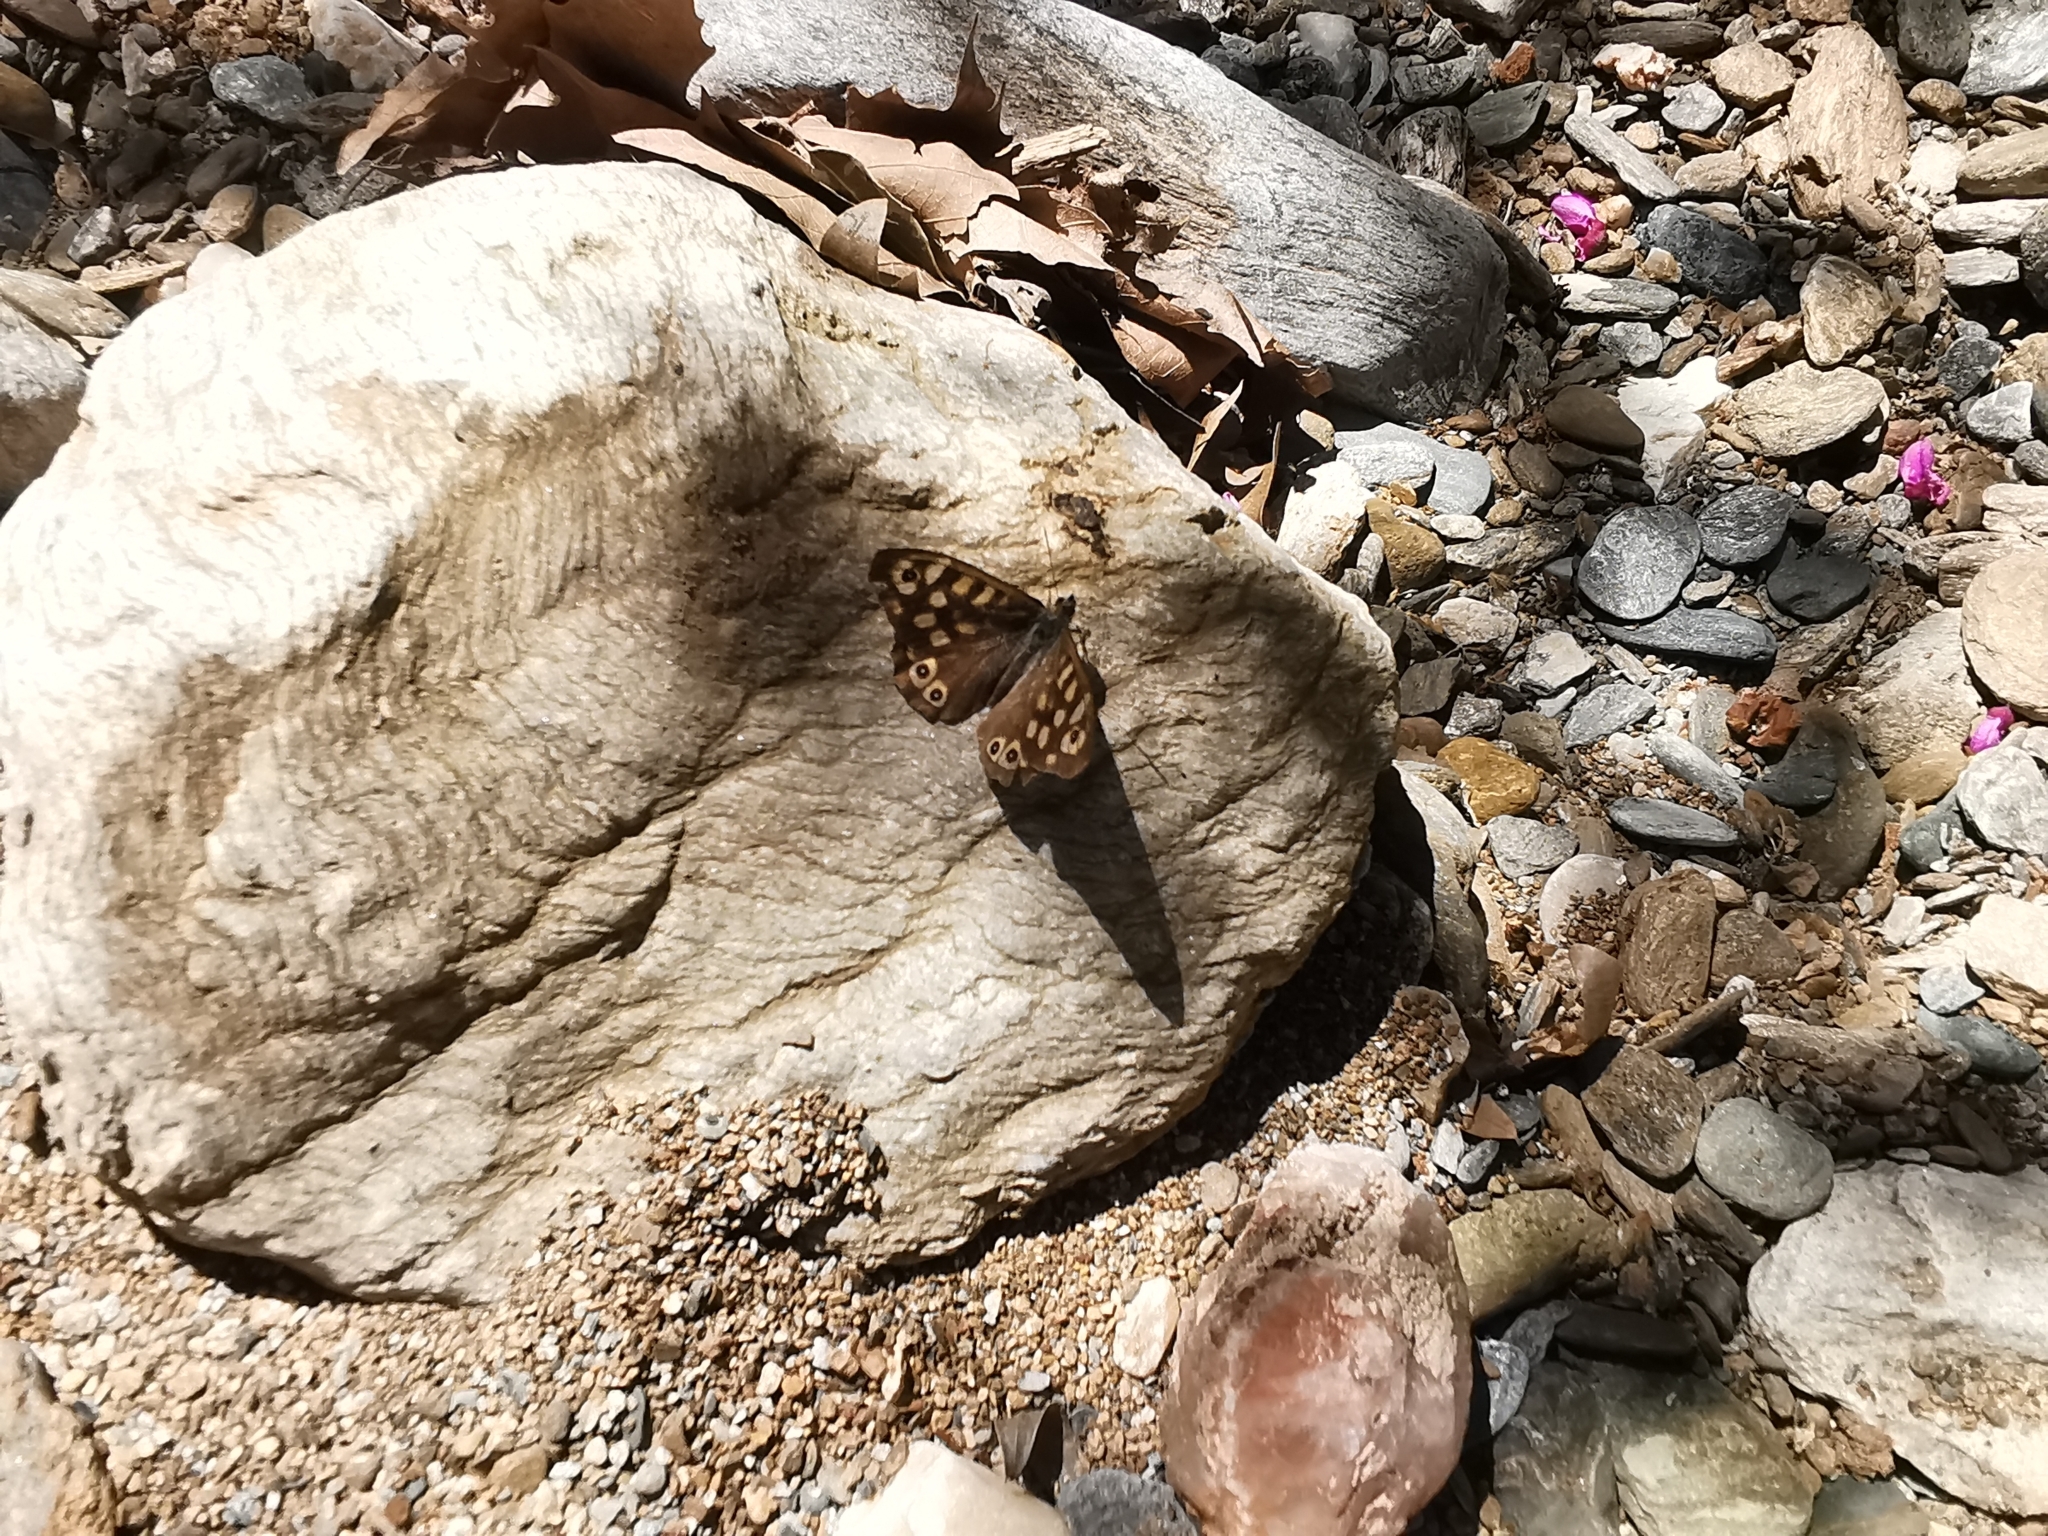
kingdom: Animalia
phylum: Arthropoda
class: Insecta
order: Lepidoptera
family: Nymphalidae
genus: Pararge
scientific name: Pararge aegeria
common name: Speckled wood
